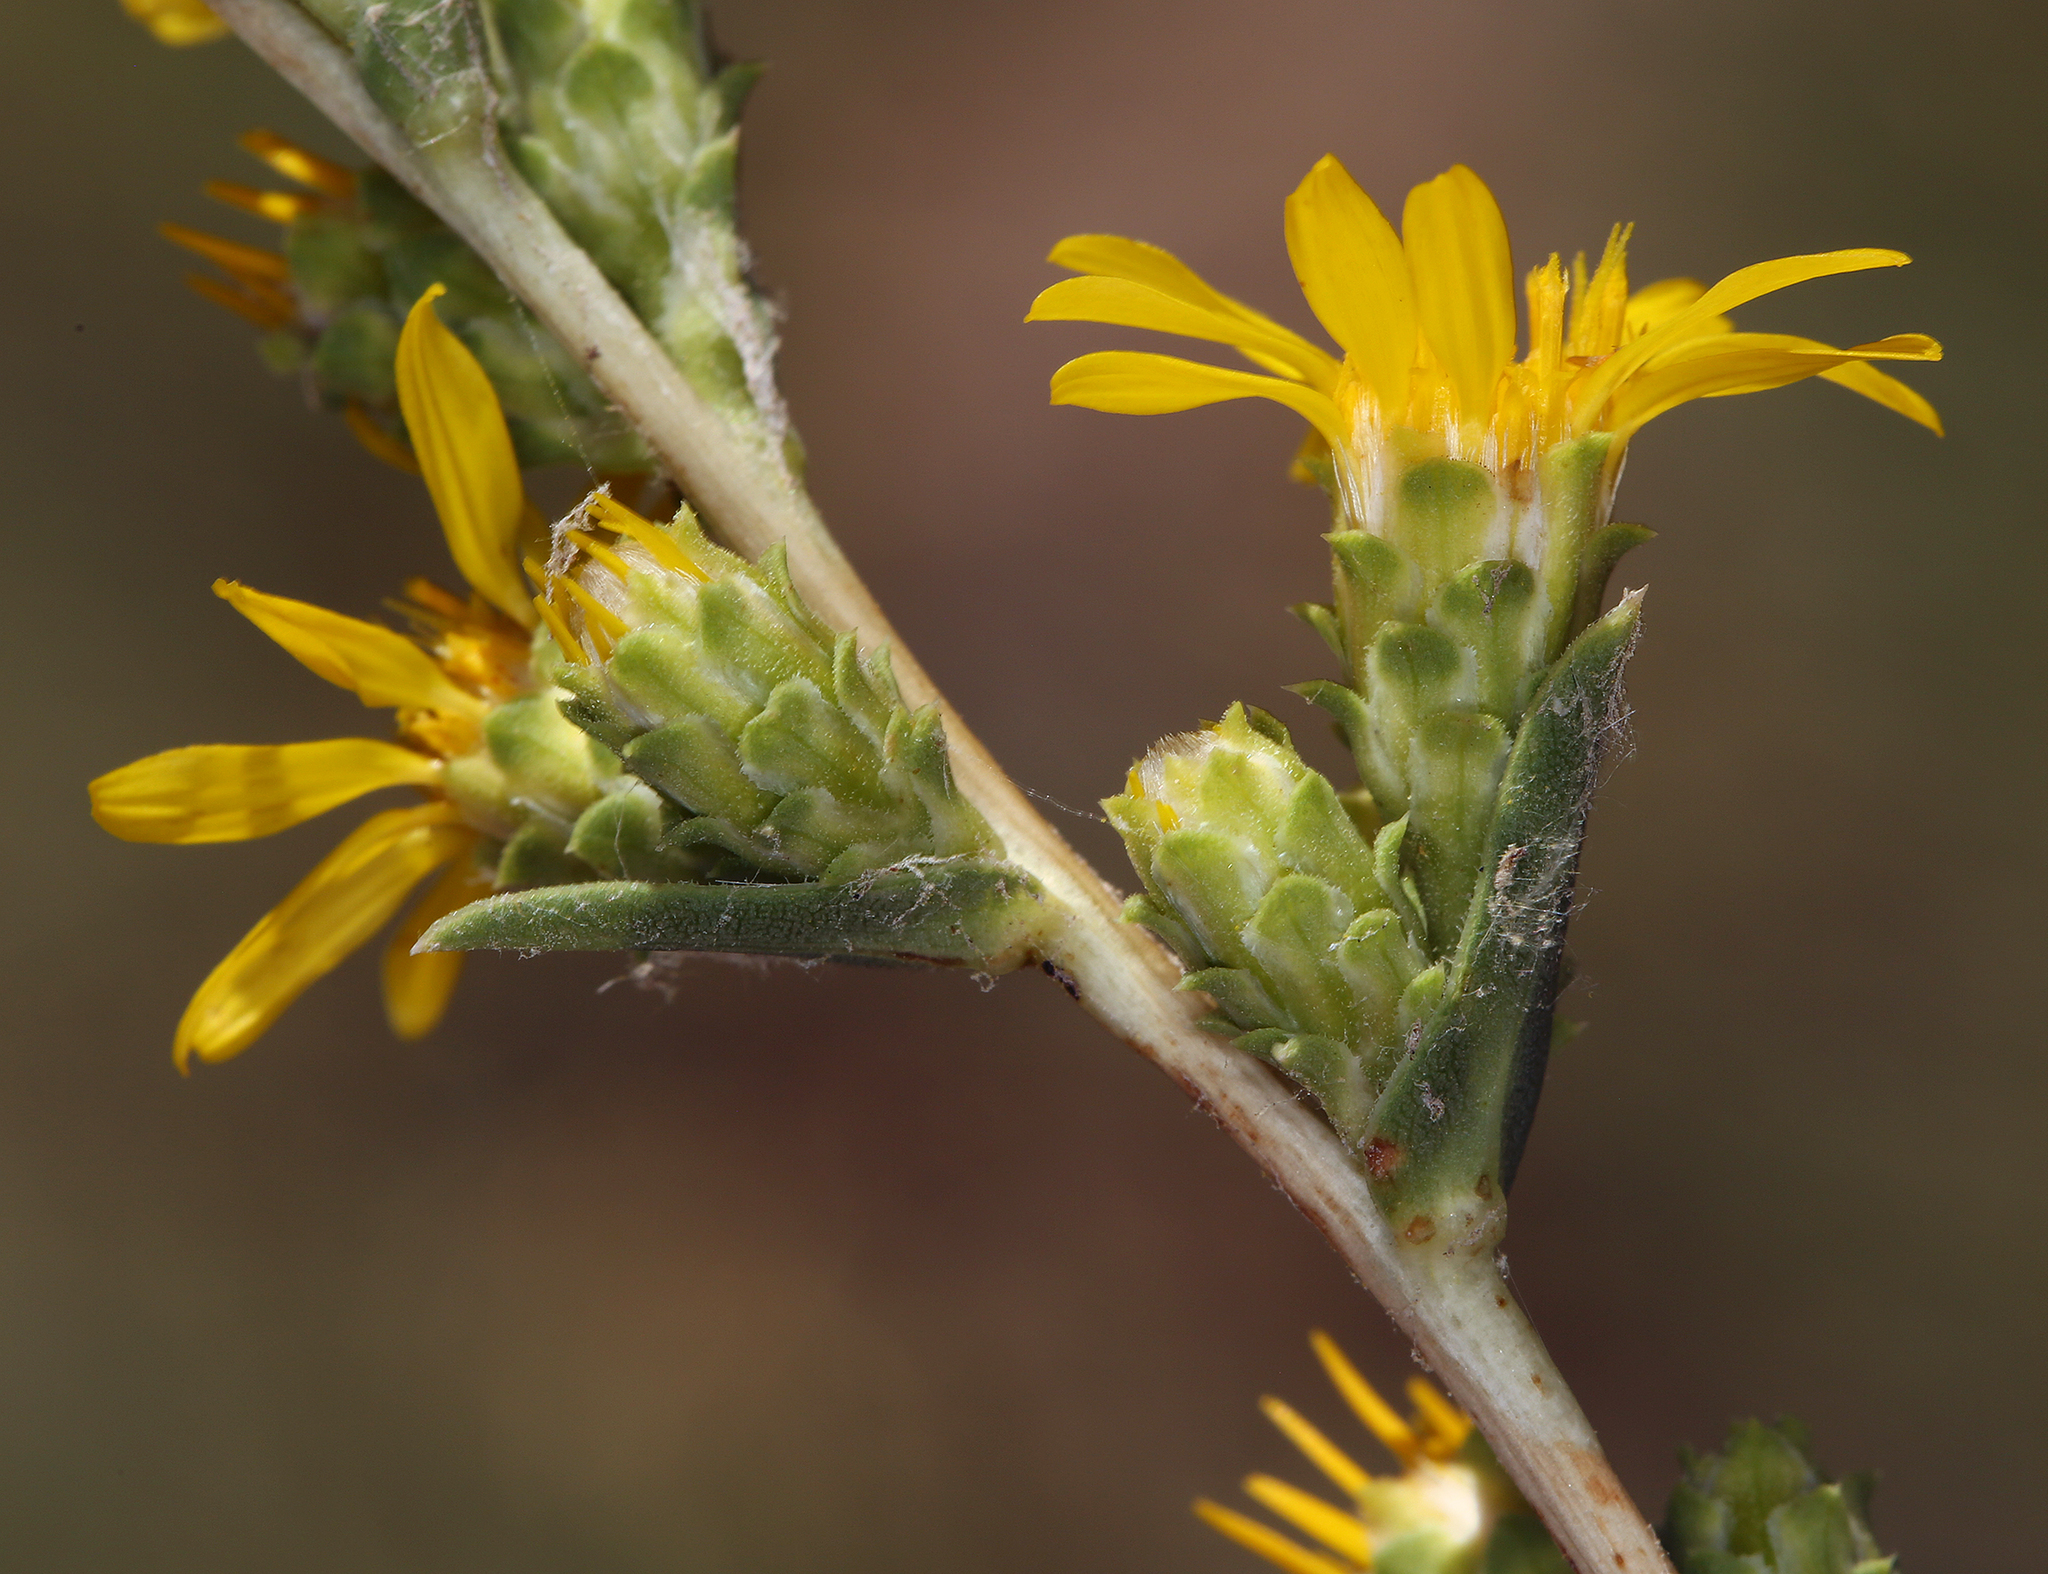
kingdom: Plantae
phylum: Tracheophyta
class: Magnoliopsida
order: Asterales
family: Asteraceae
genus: Pyrrocoma
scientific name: Pyrrocoma racemosa
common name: Clustered goldenweed
